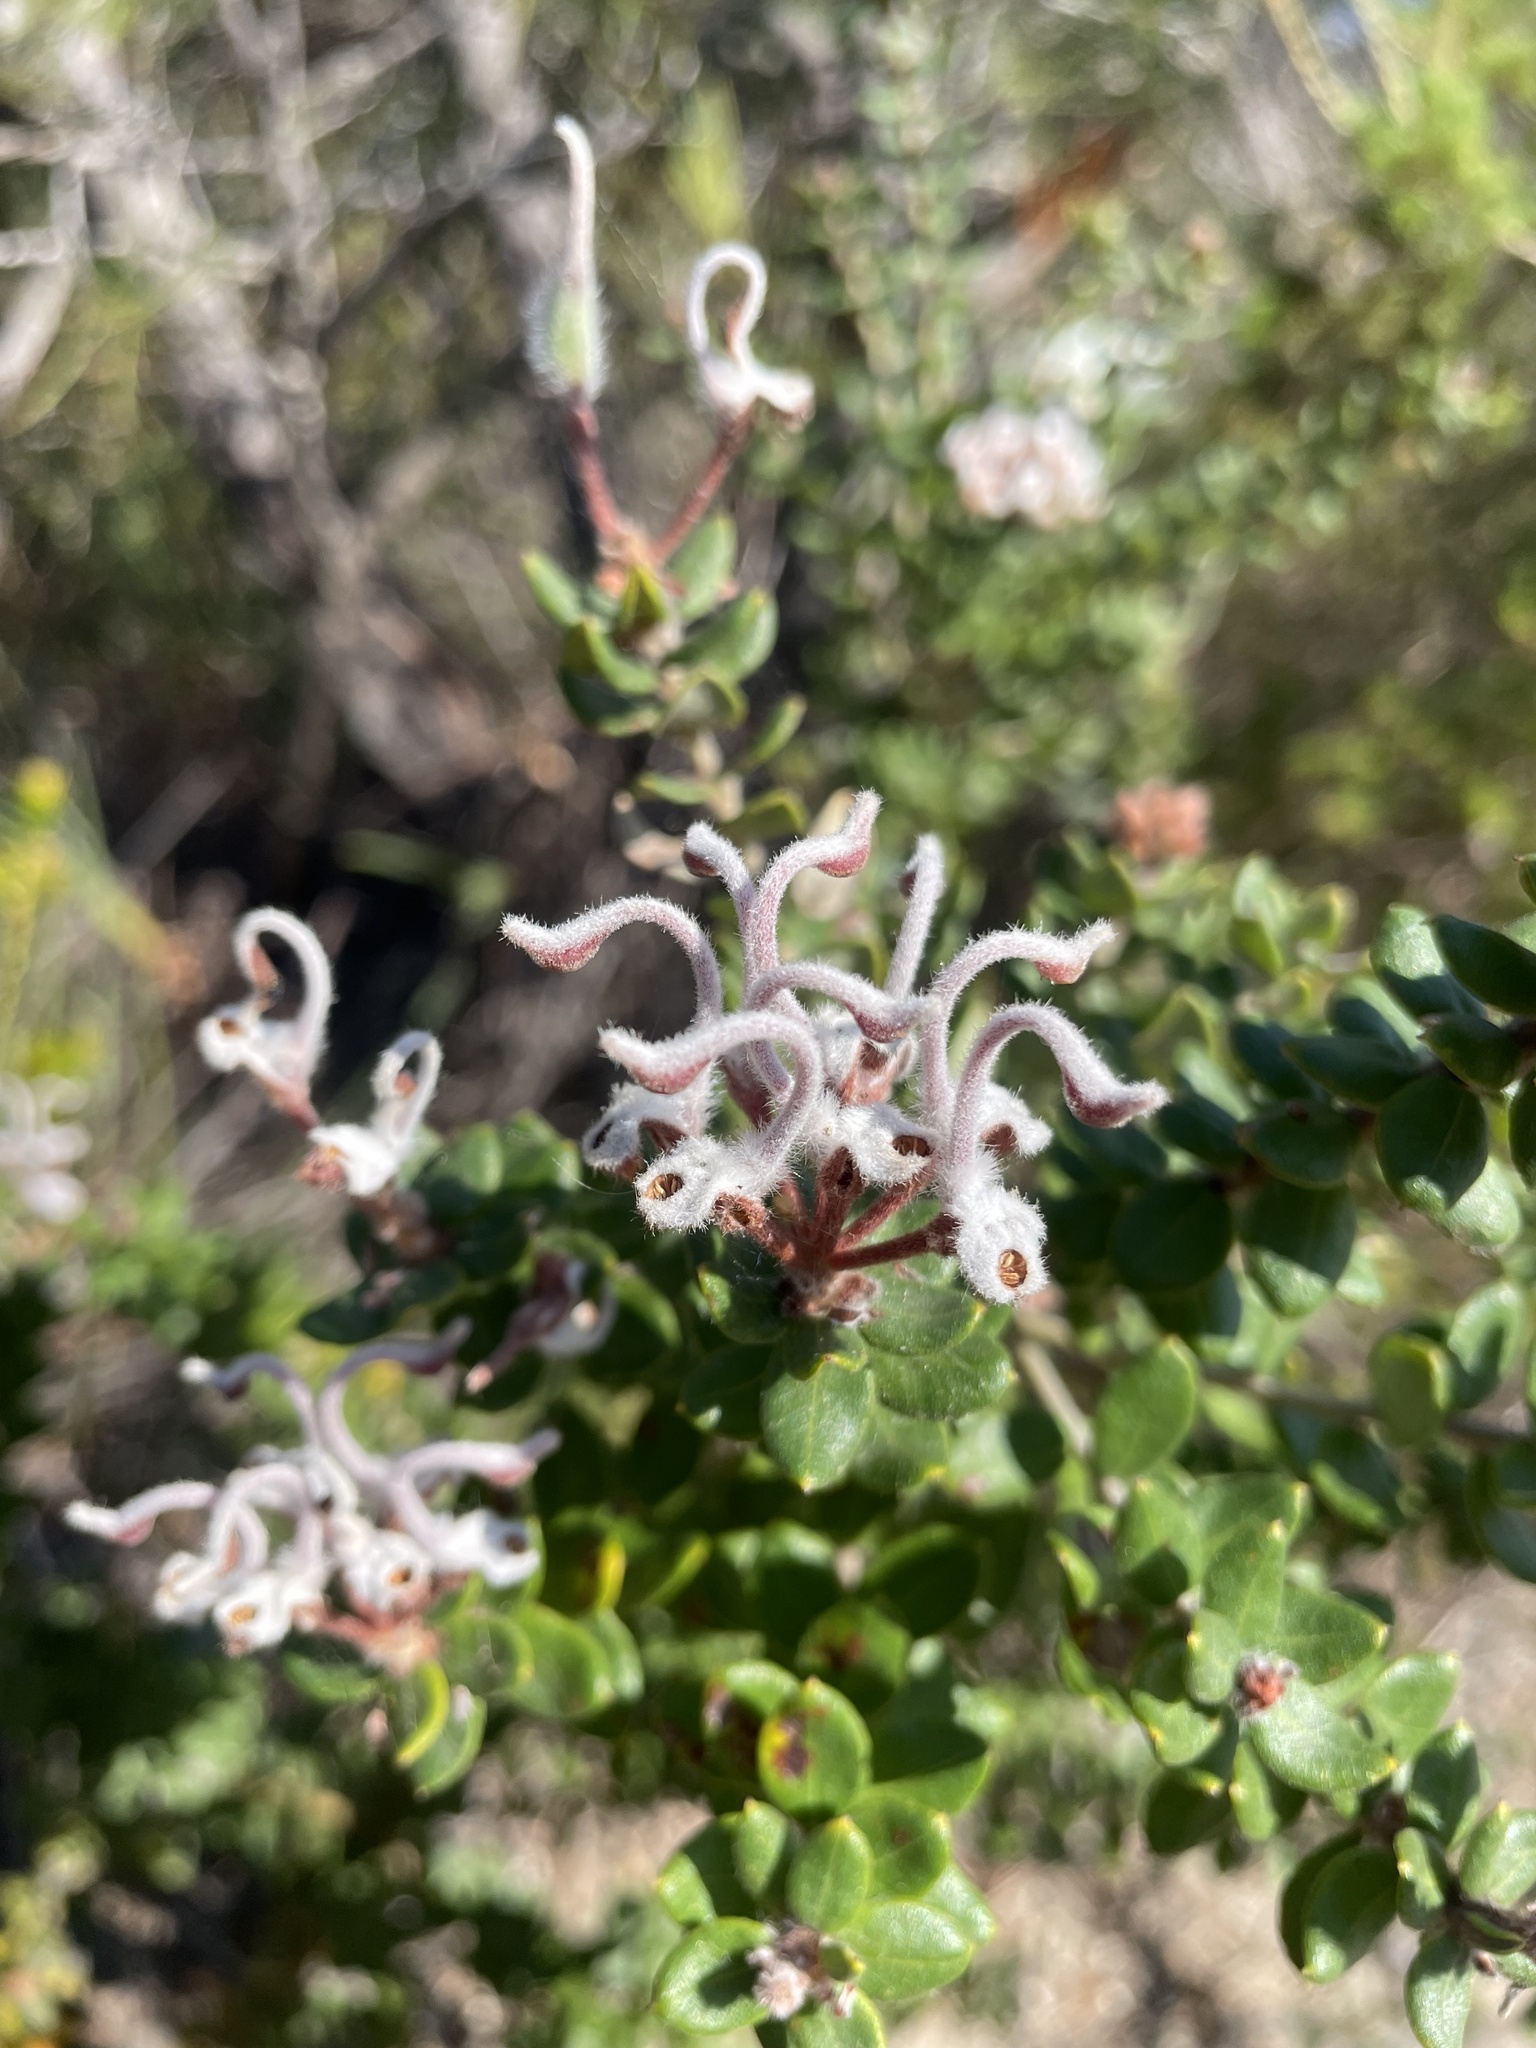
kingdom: Plantae
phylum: Tracheophyta
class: Magnoliopsida
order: Proteales
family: Proteaceae
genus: Grevillea
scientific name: Grevillea buxifolia
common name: Grey spiderflower
